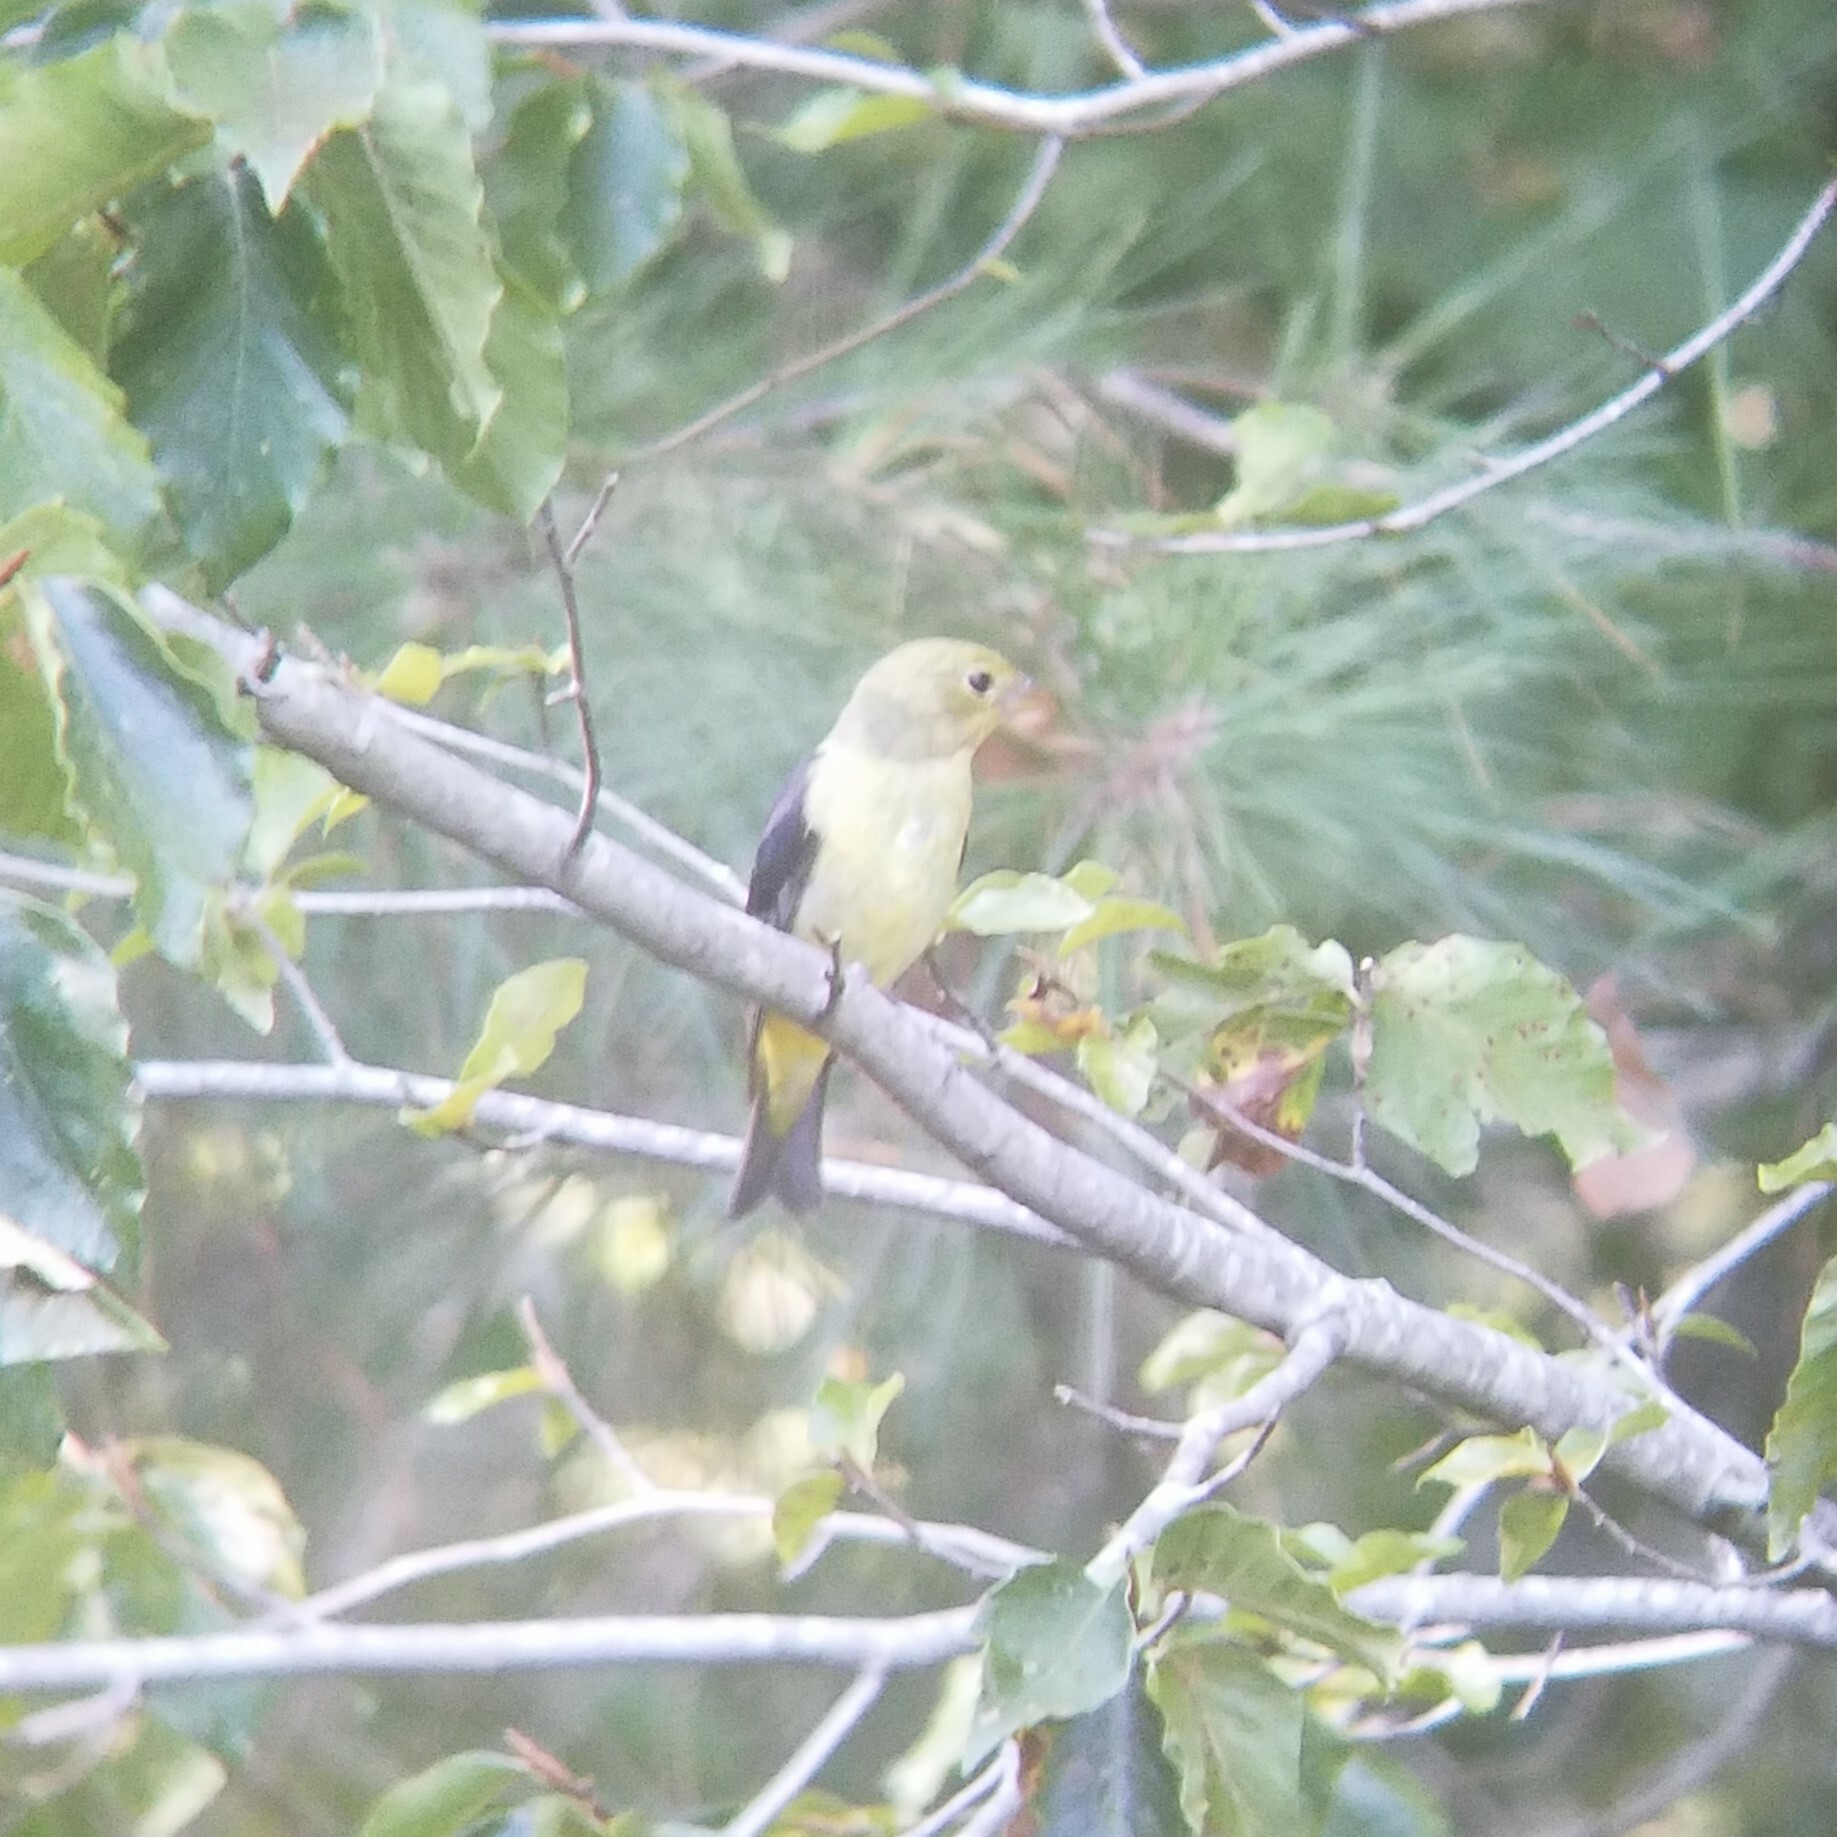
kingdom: Animalia
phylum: Chordata
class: Aves
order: Passeriformes
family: Cardinalidae
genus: Piranga
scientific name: Piranga olivacea
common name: Scarlet tanager
